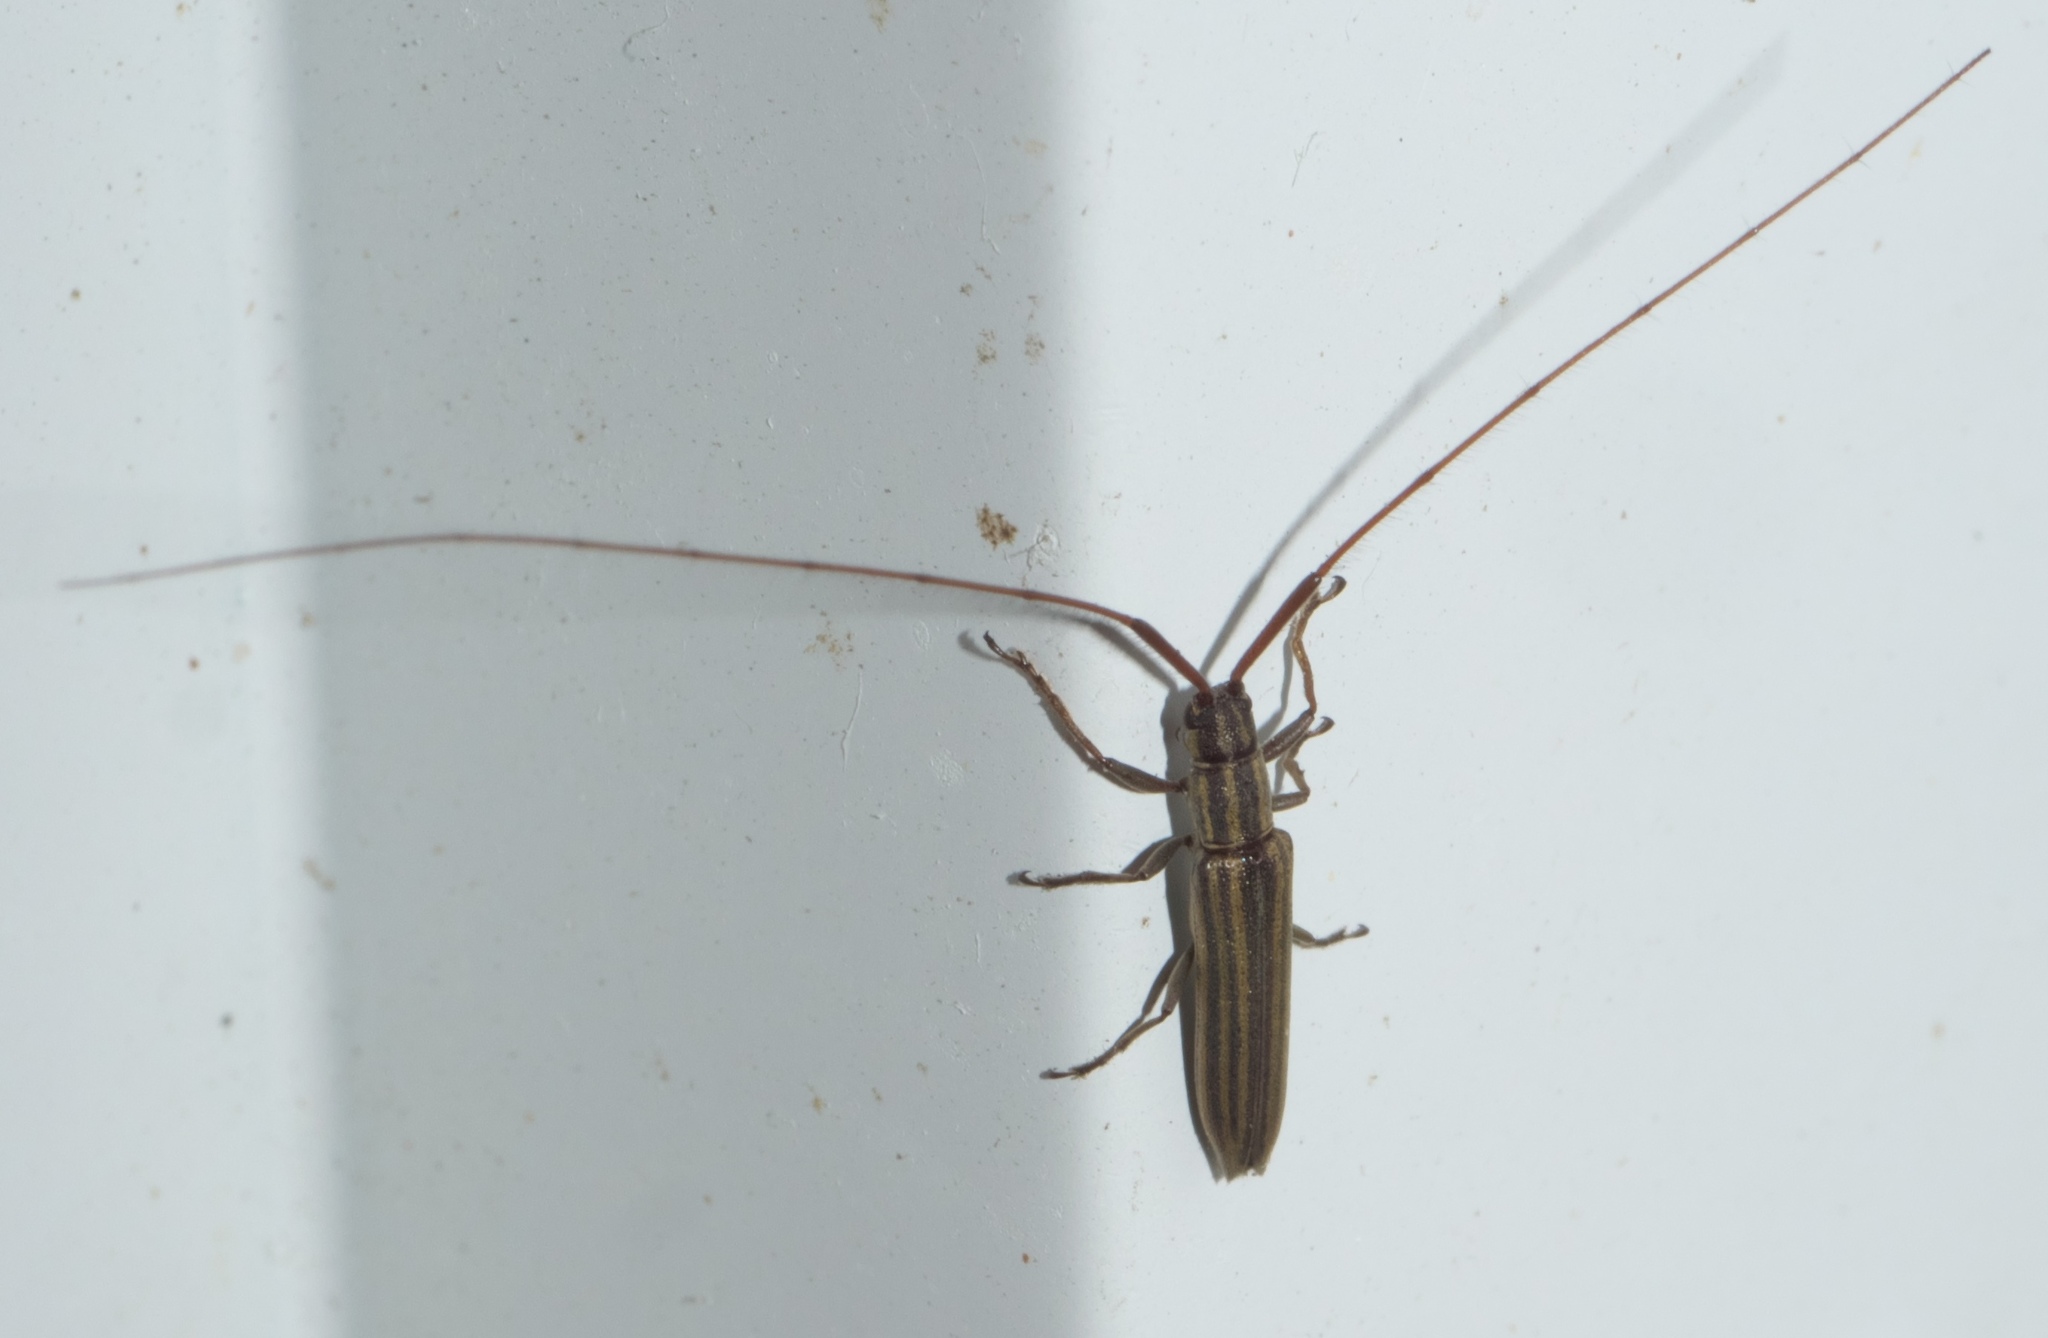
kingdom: Animalia
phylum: Arthropoda
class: Insecta
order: Coleoptera
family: Cerambycidae
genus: Hippopsis
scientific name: Hippopsis
